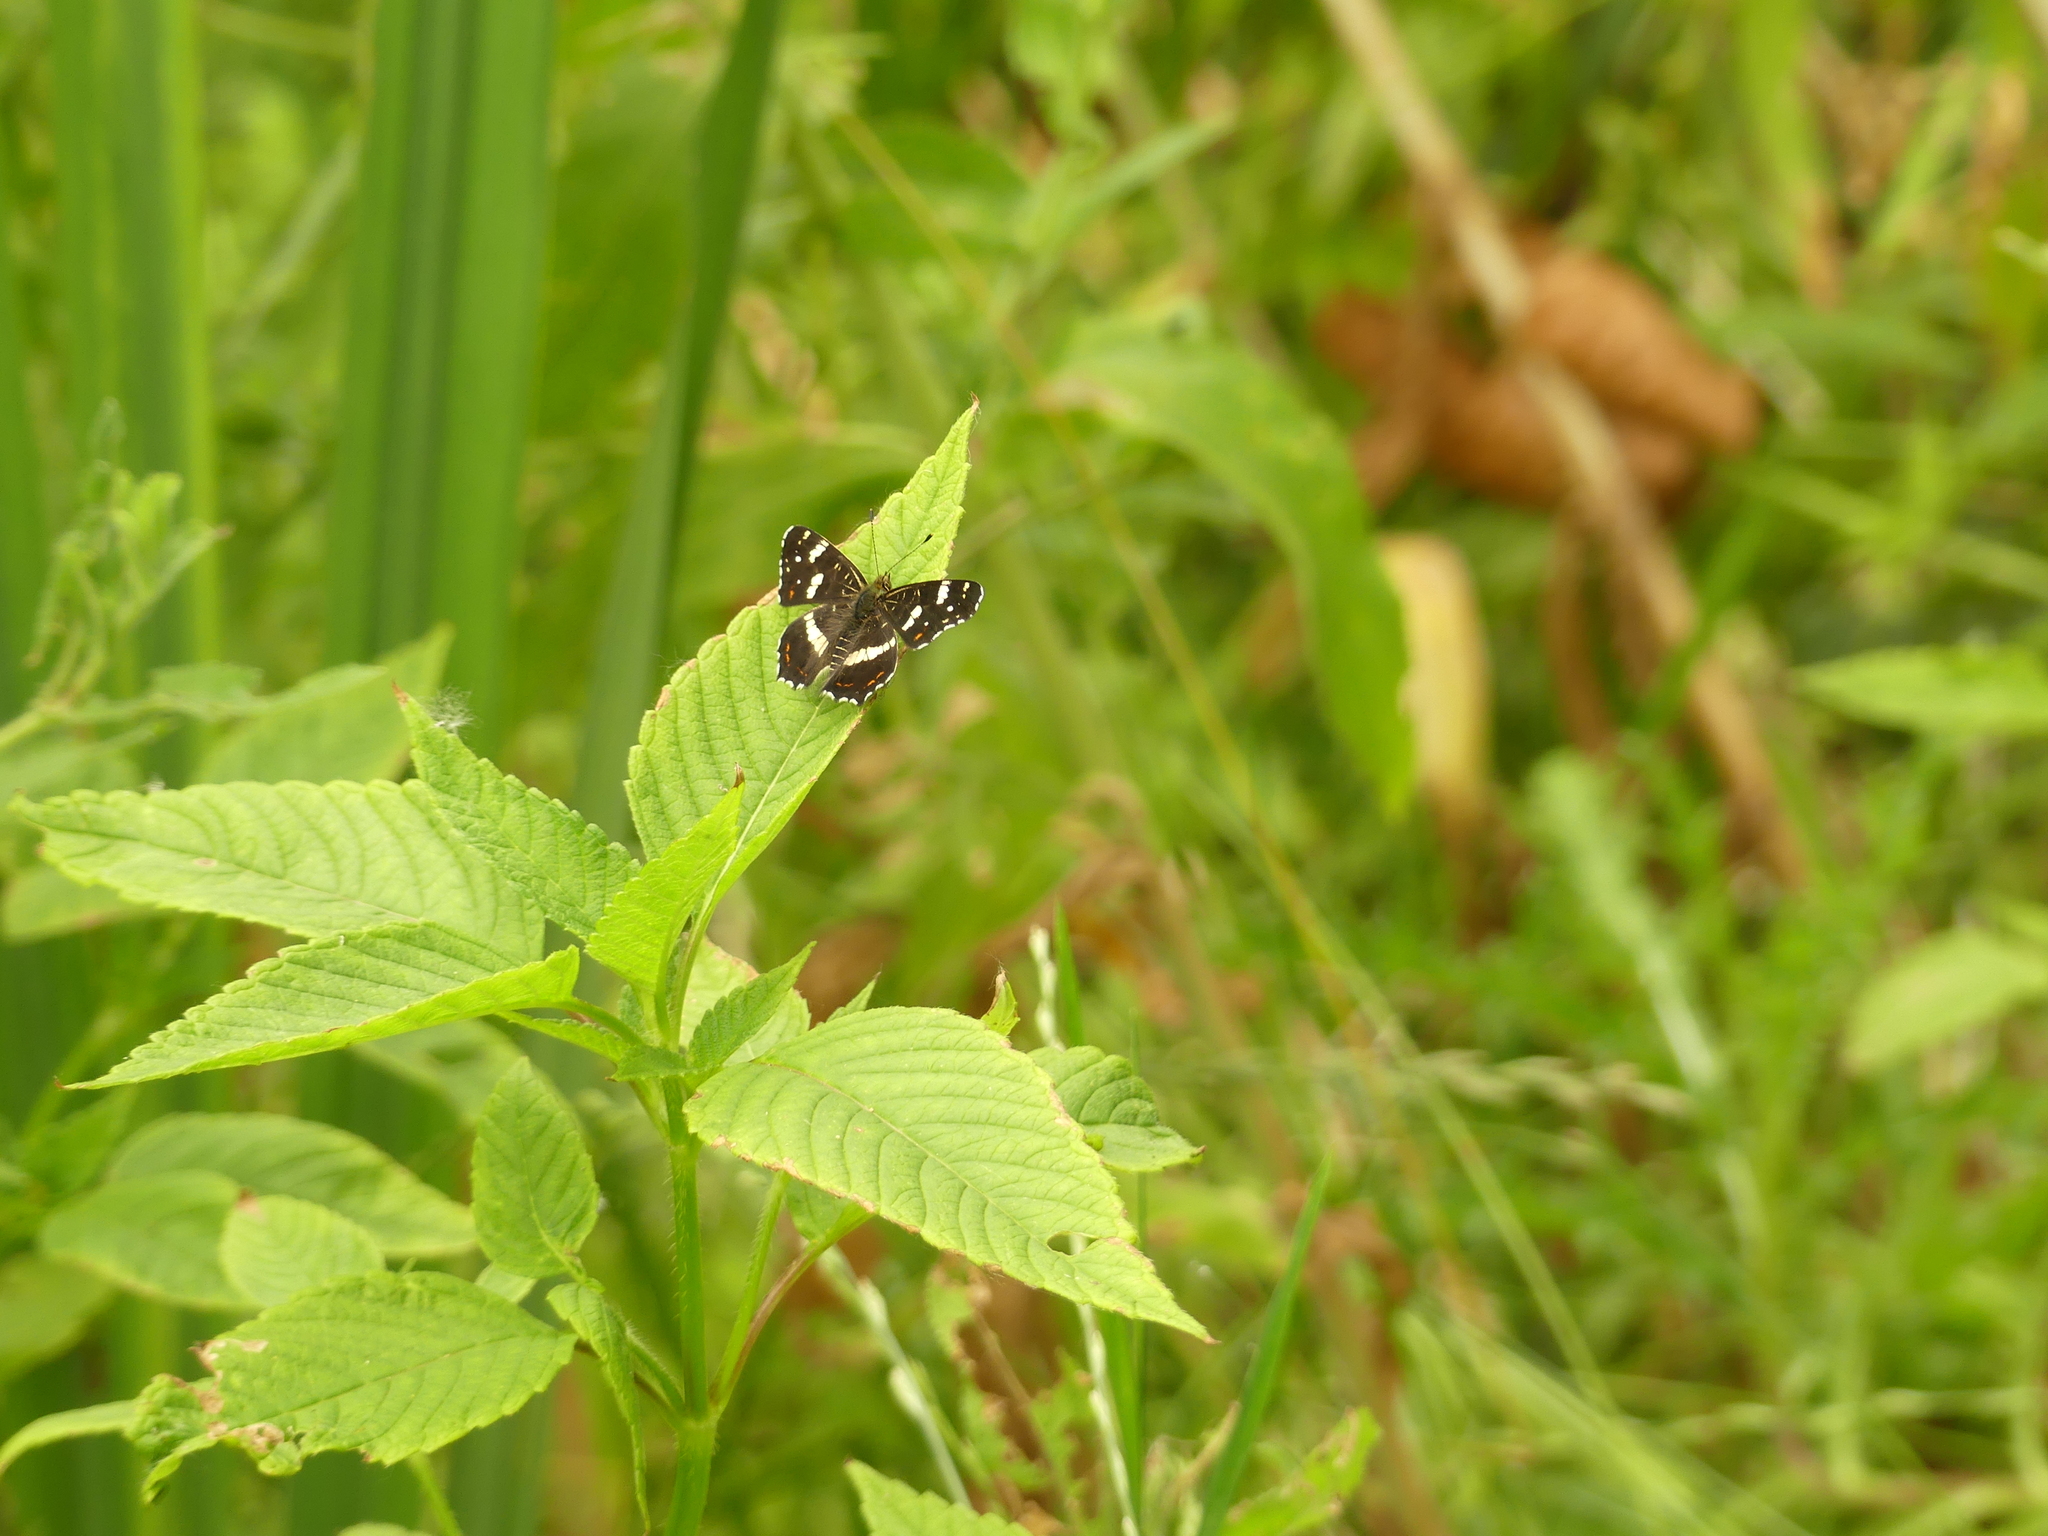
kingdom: Animalia
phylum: Arthropoda
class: Insecta
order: Lepidoptera
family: Nymphalidae
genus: Araschnia
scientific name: Araschnia levana
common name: Map butterfly
